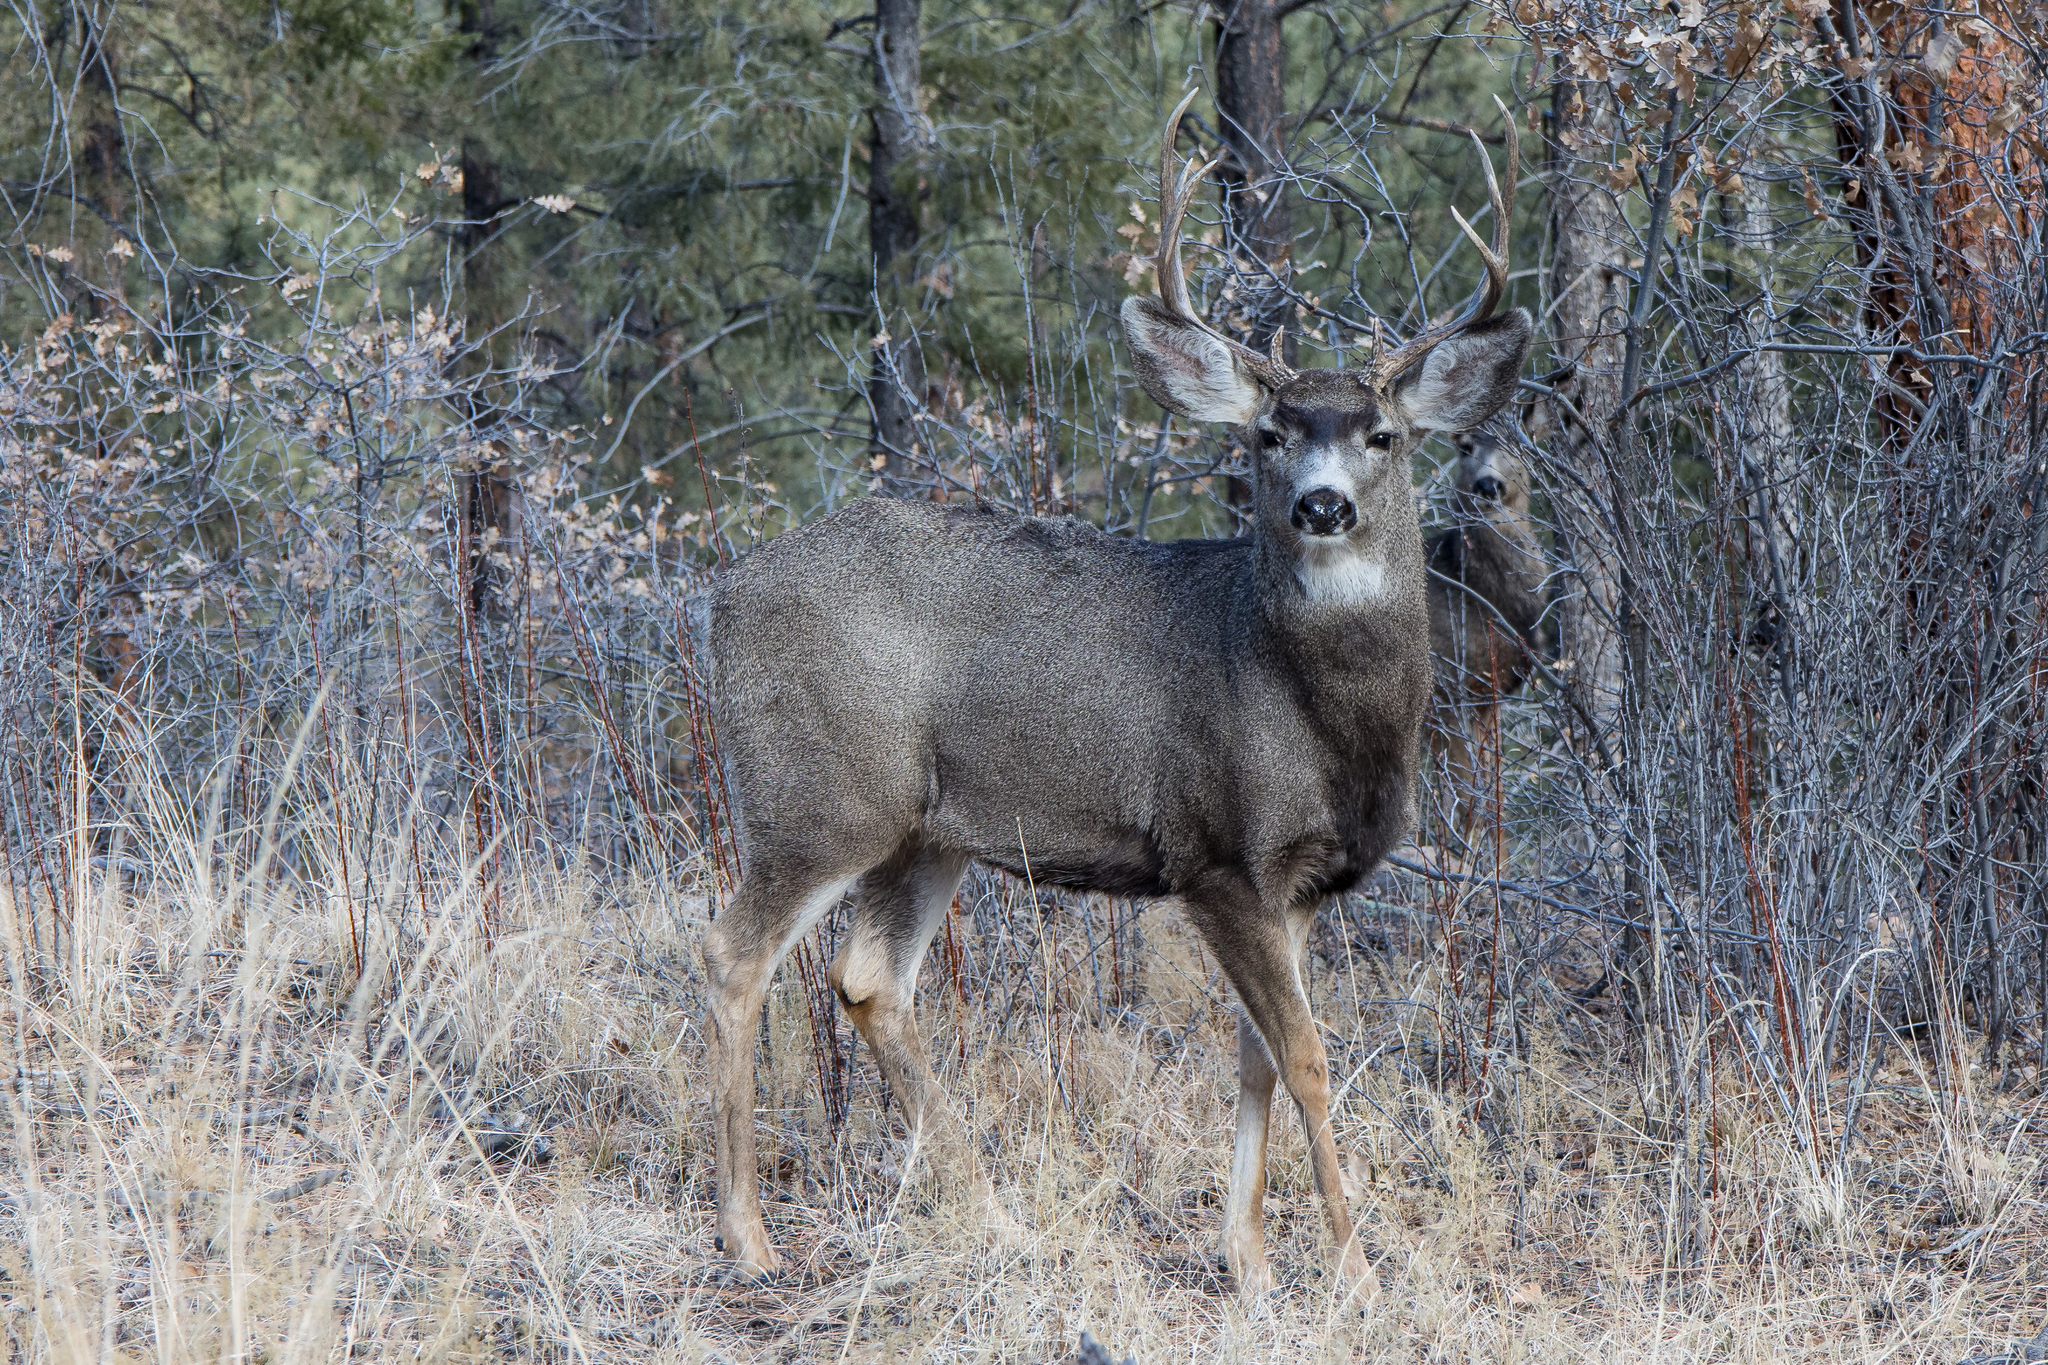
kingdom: Animalia
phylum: Chordata
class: Mammalia
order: Artiodactyla
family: Cervidae
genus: Odocoileus
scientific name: Odocoileus hemionus
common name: Mule deer
